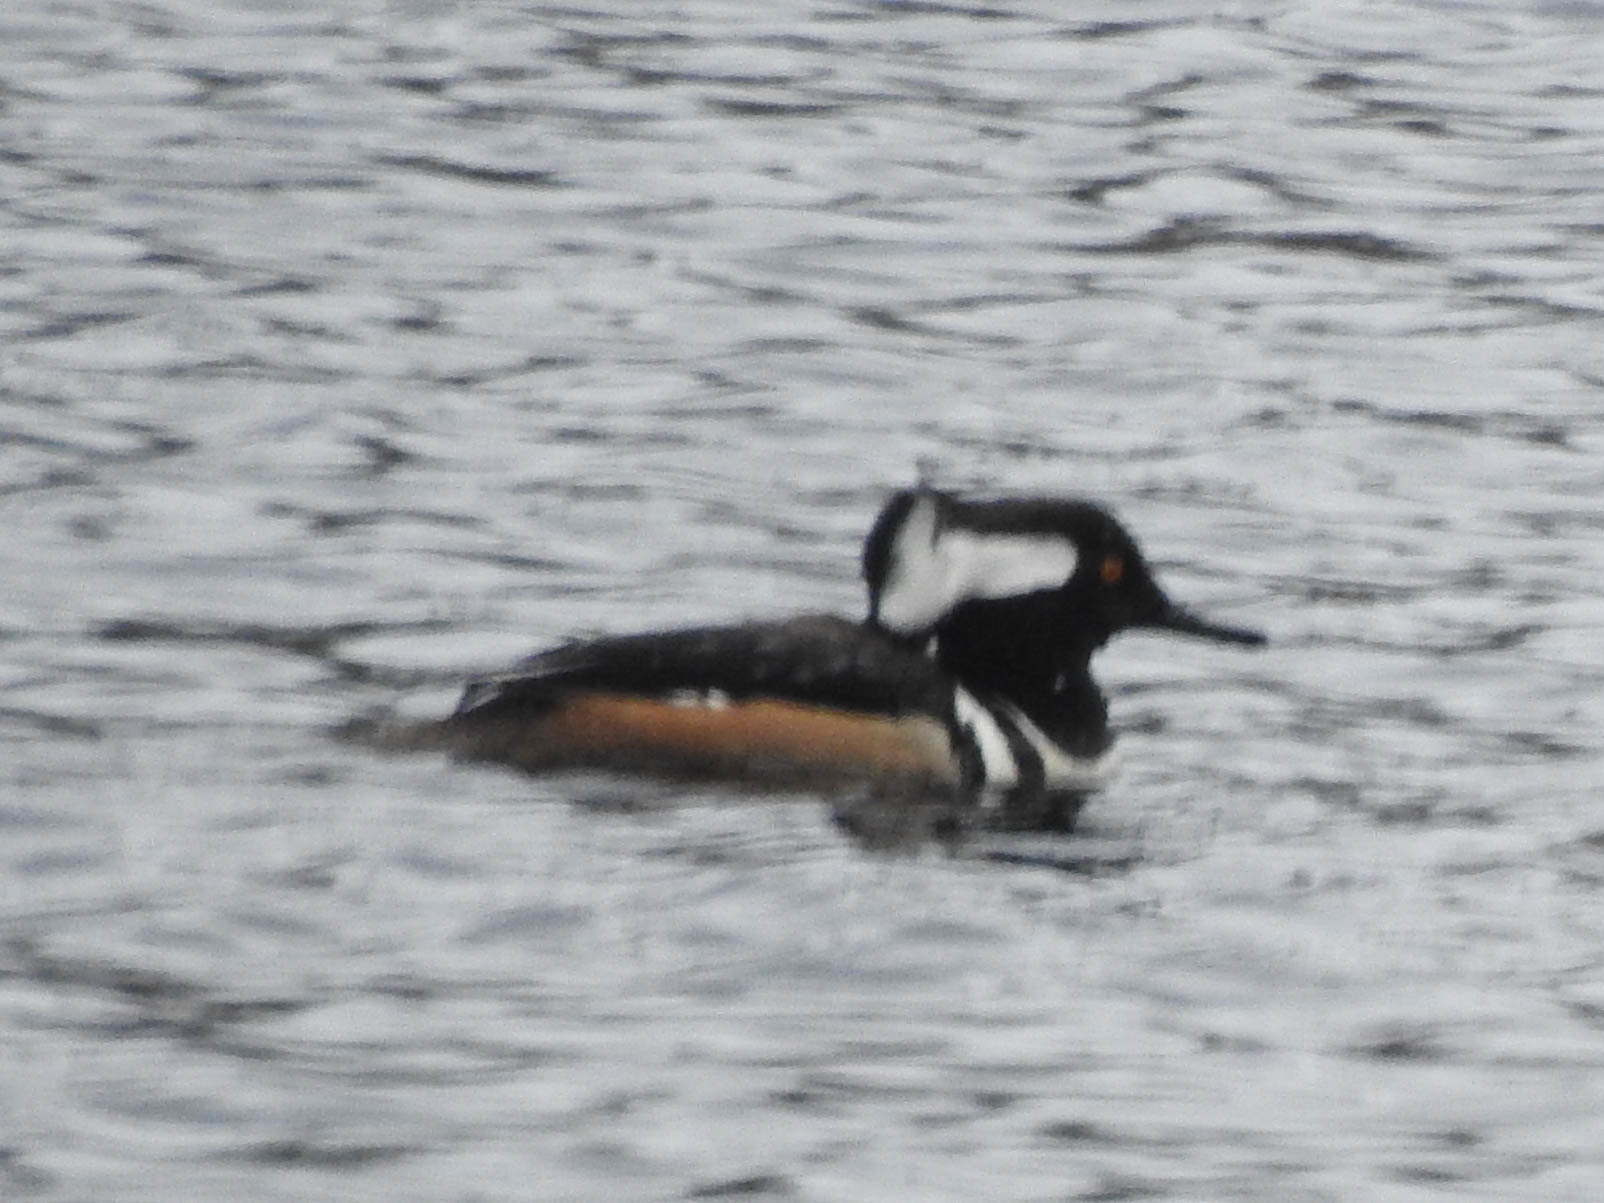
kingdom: Animalia
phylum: Chordata
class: Aves
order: Anseriformes
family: Anatidae
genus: Lophodytes
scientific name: Lophodytes cucullatus
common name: Hooded merganser
